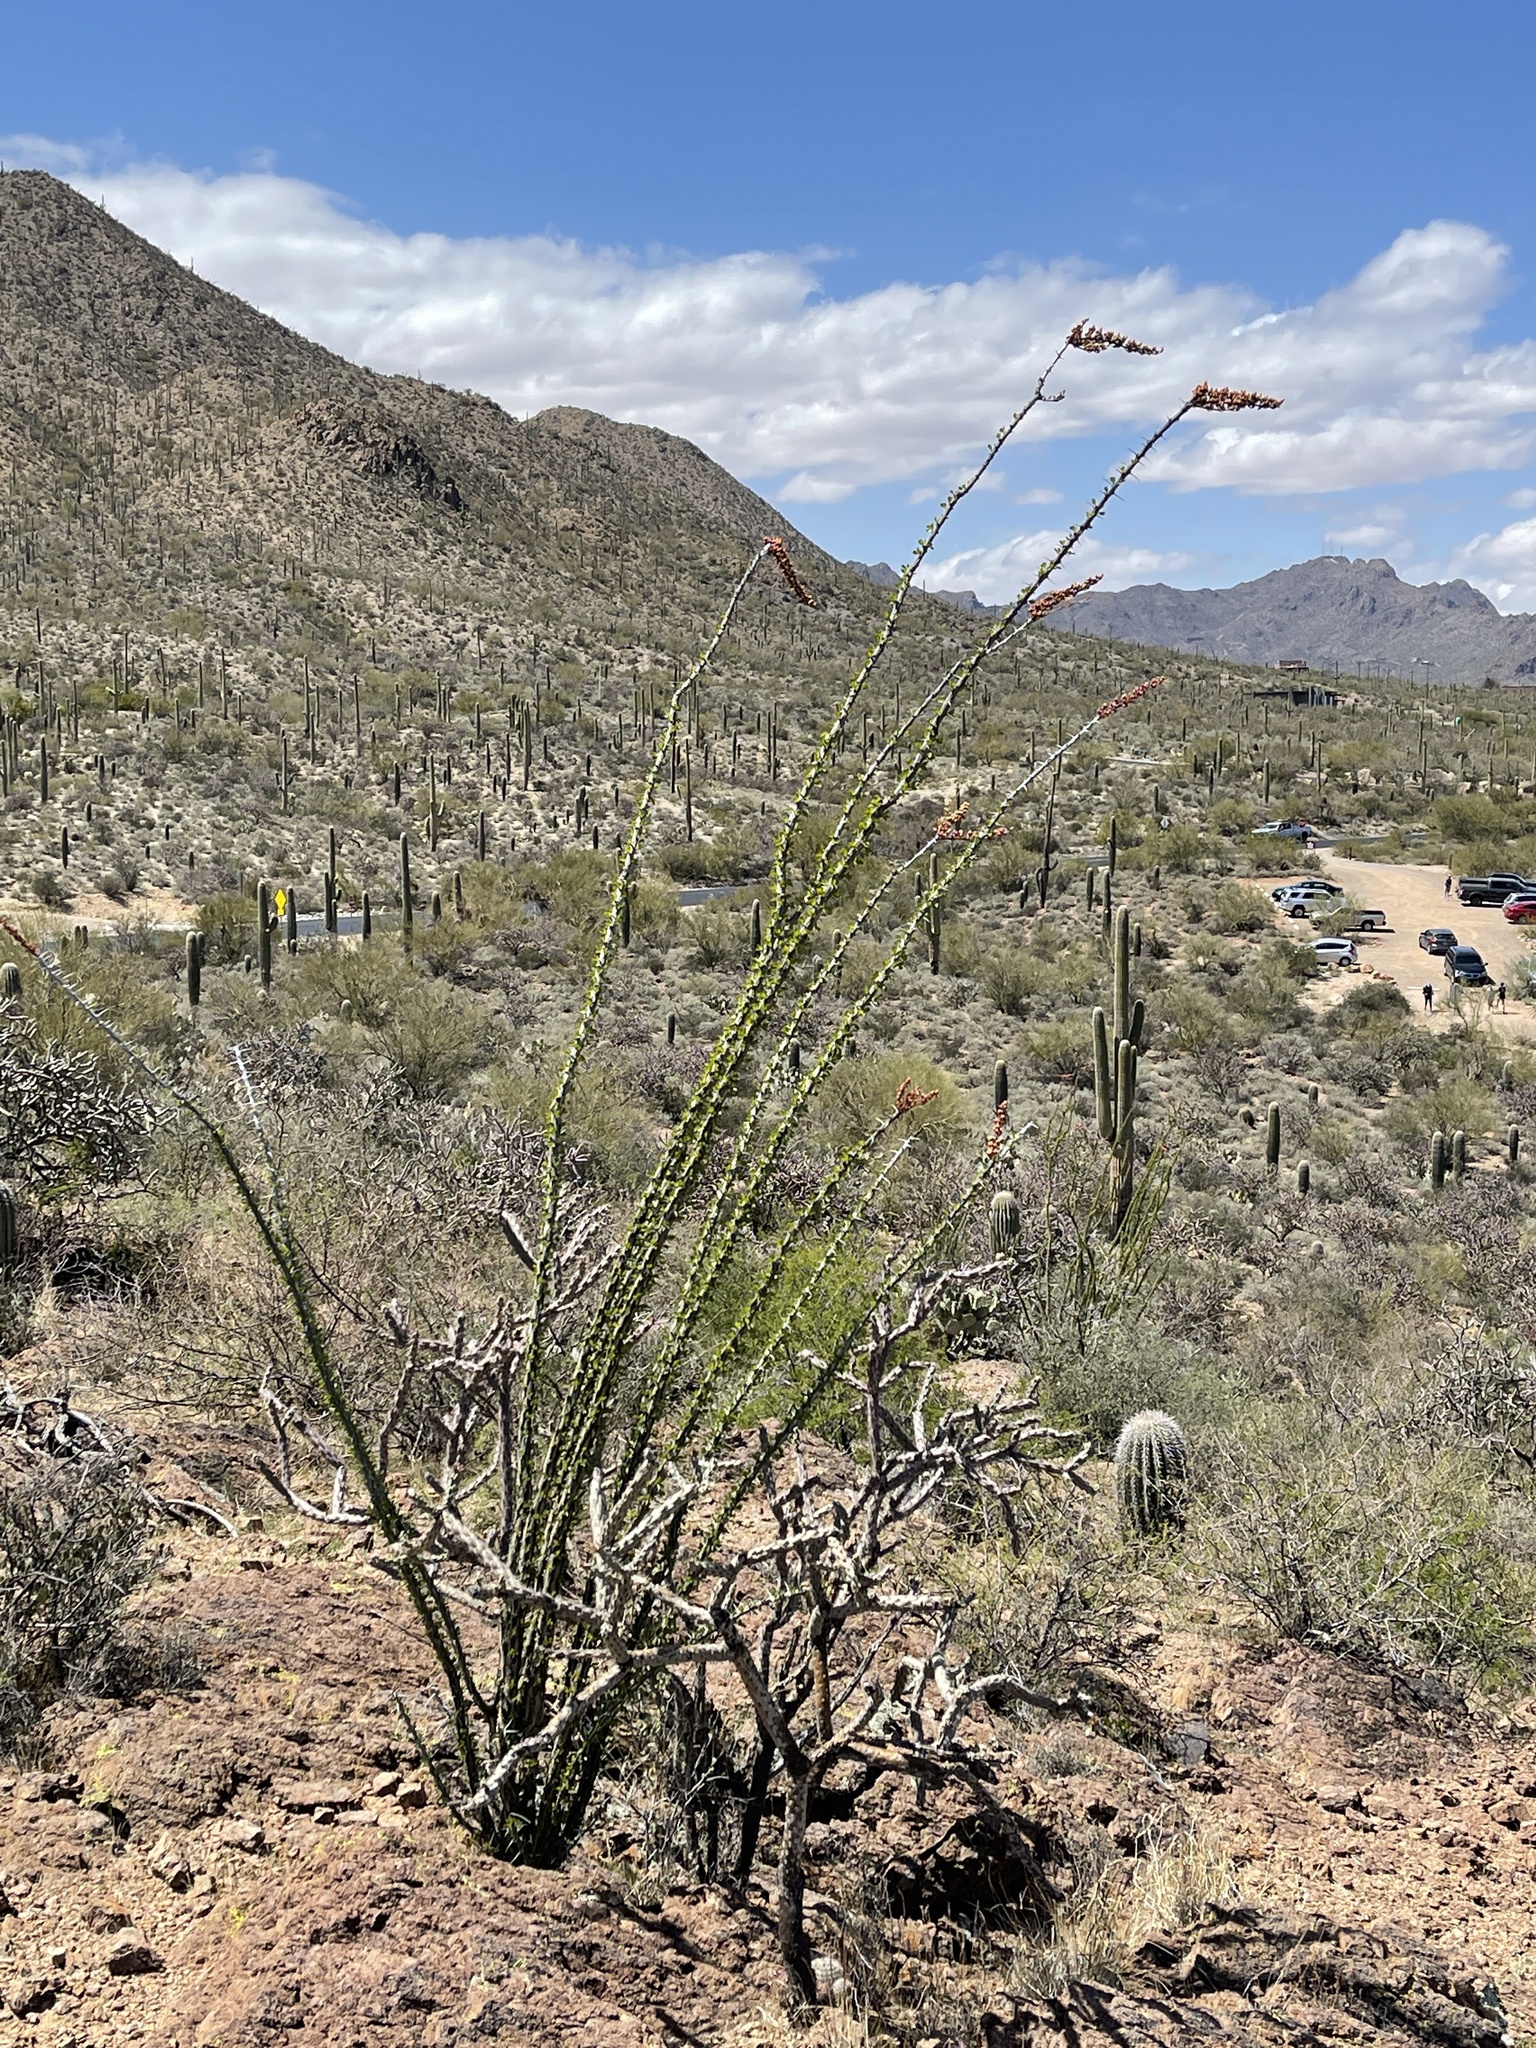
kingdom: Plantae
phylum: Tracheophyta
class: Magnoliopsida
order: Ericales
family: Fouquieriaceae
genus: Fouquieria
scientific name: Fouquieria splendens
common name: Vine-cactus
